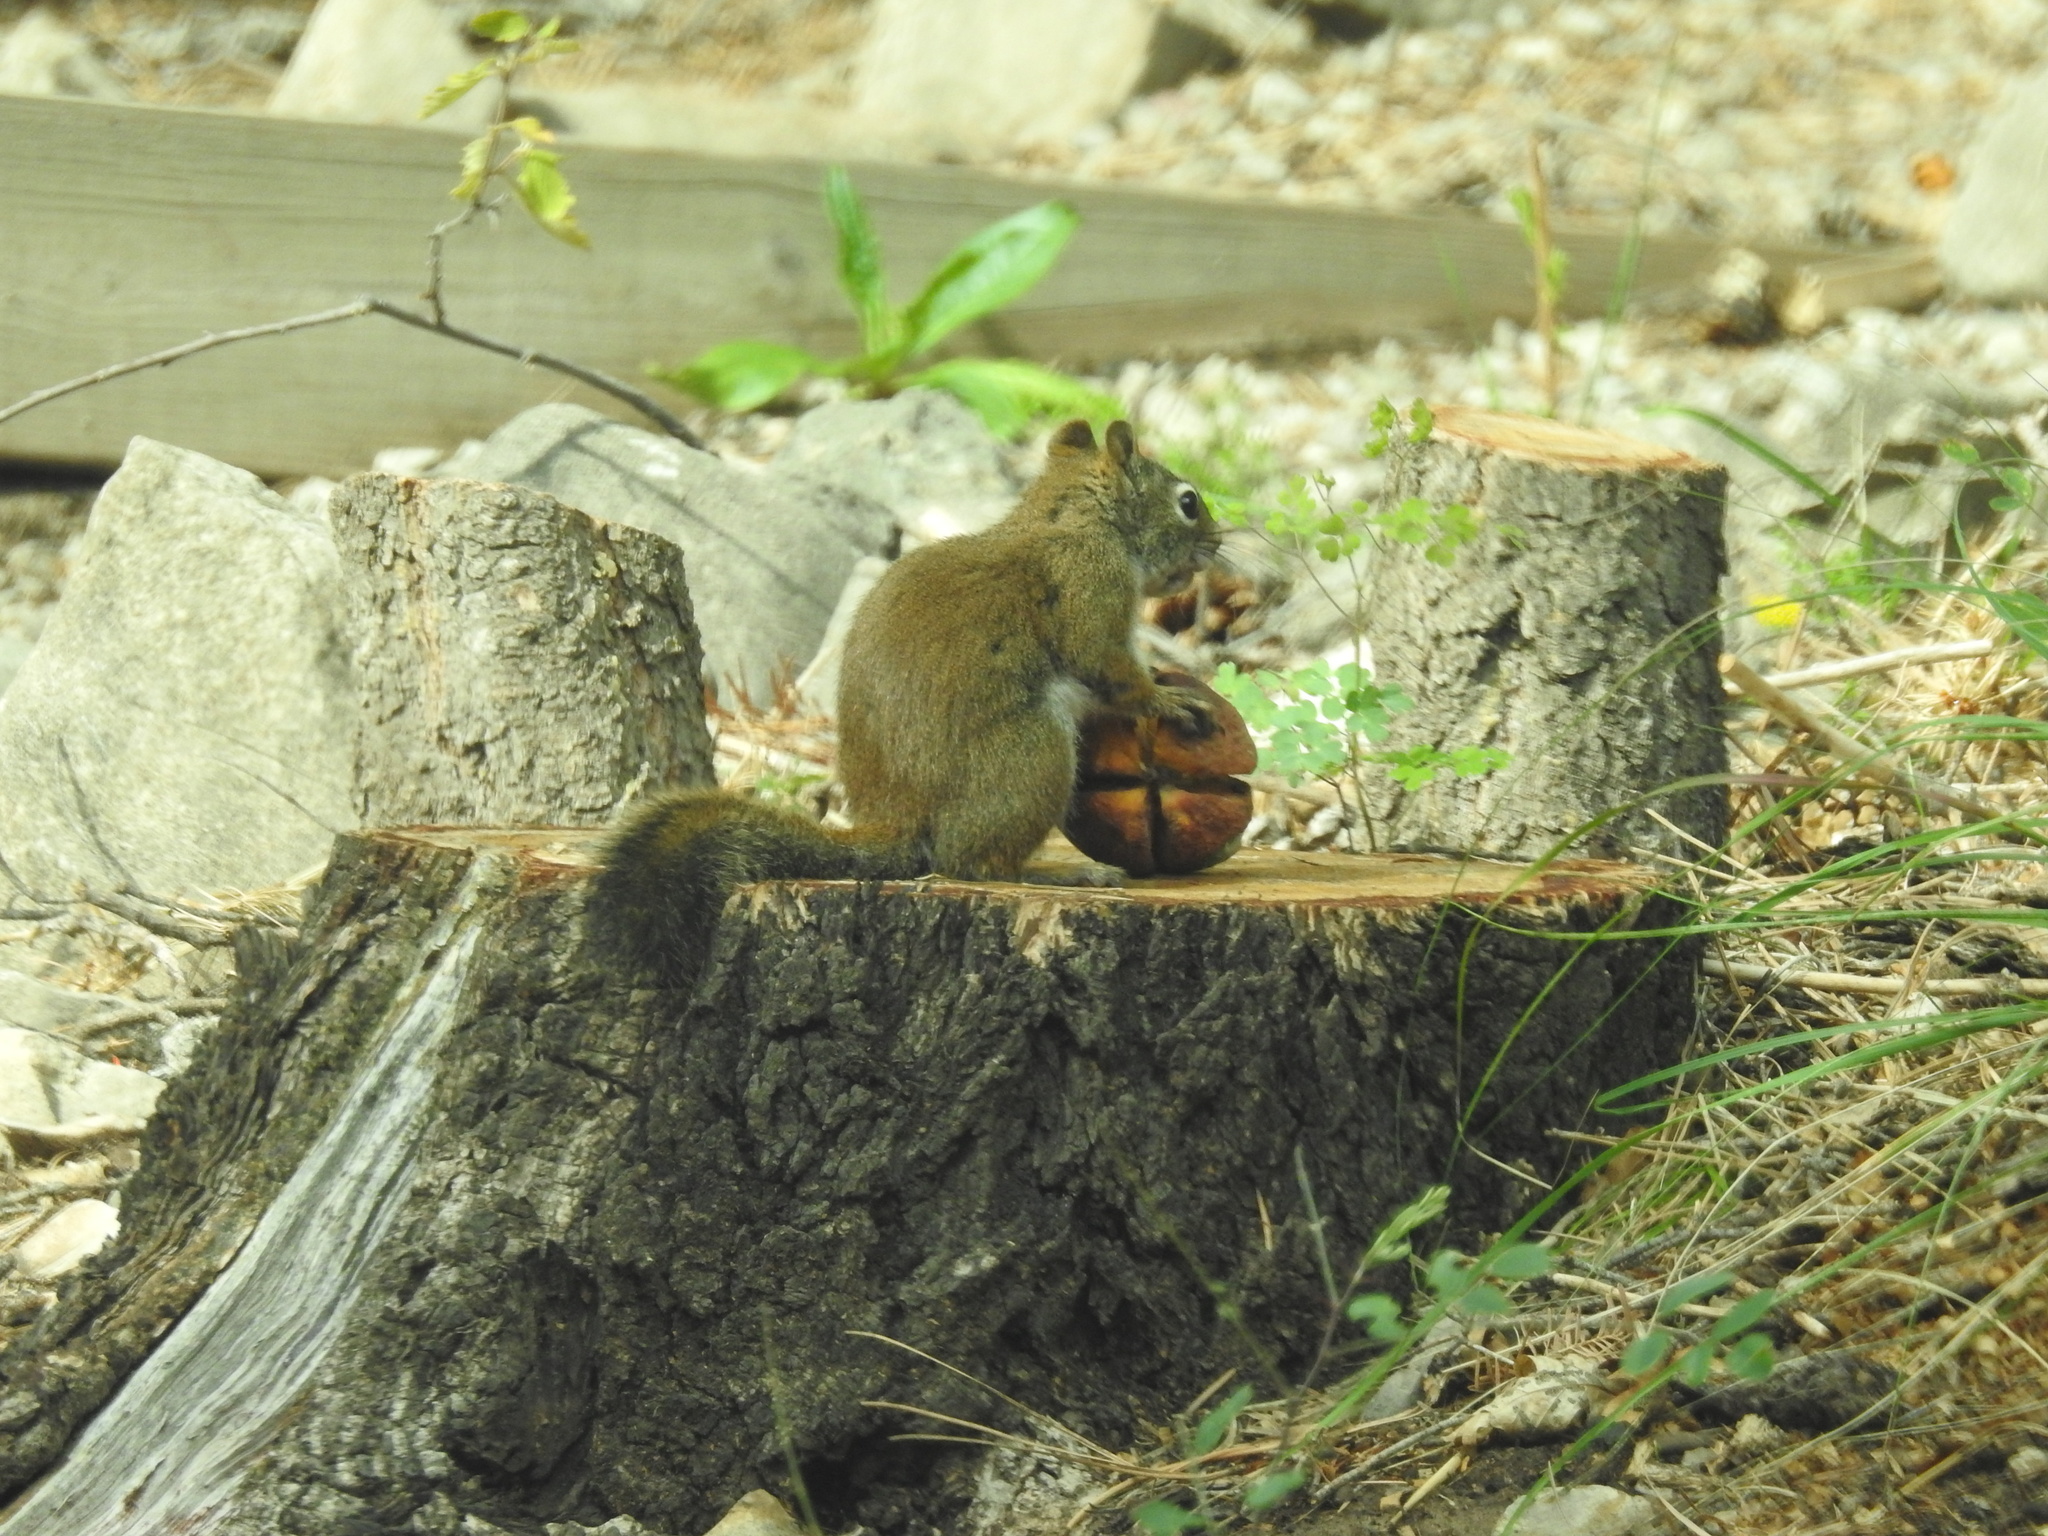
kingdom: Animalia
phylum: Chordata
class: Mammalia
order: Rodentia
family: Sciuridae
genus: Tamiasciurus
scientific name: Tamiasciurus hudsonicus
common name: Red squirrel
